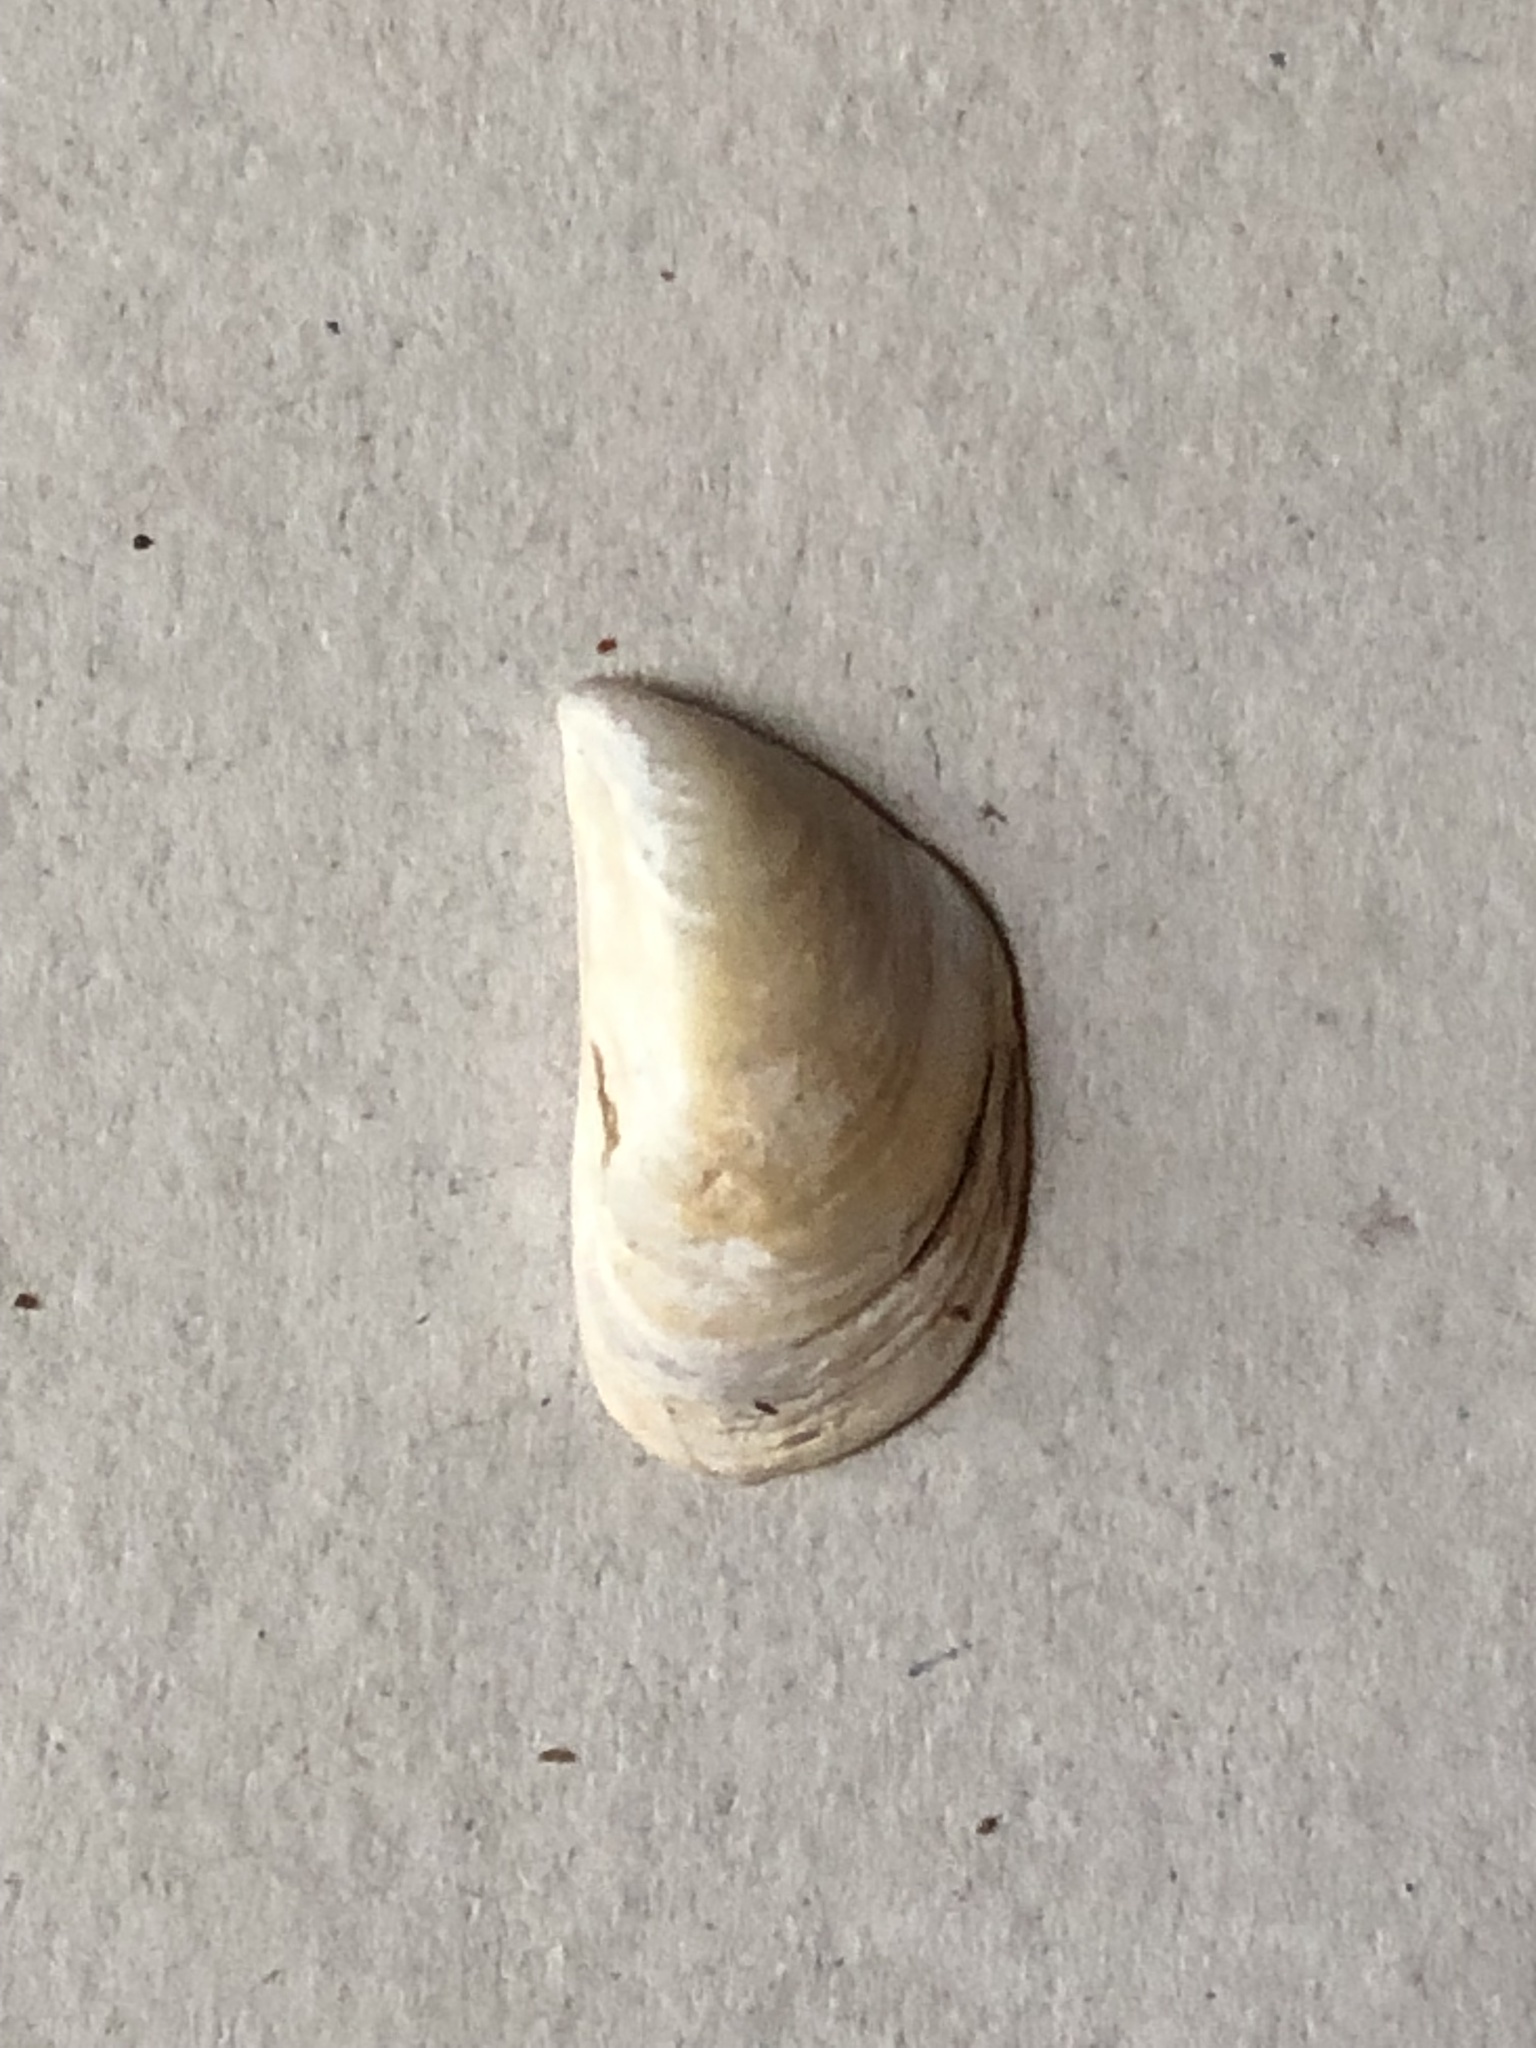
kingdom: Animalia
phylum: Mollusca
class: Bivalvia
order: Myida
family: Dreissenidae
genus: Dreissena
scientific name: Dreissena bugensis
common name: Quagga mussel
